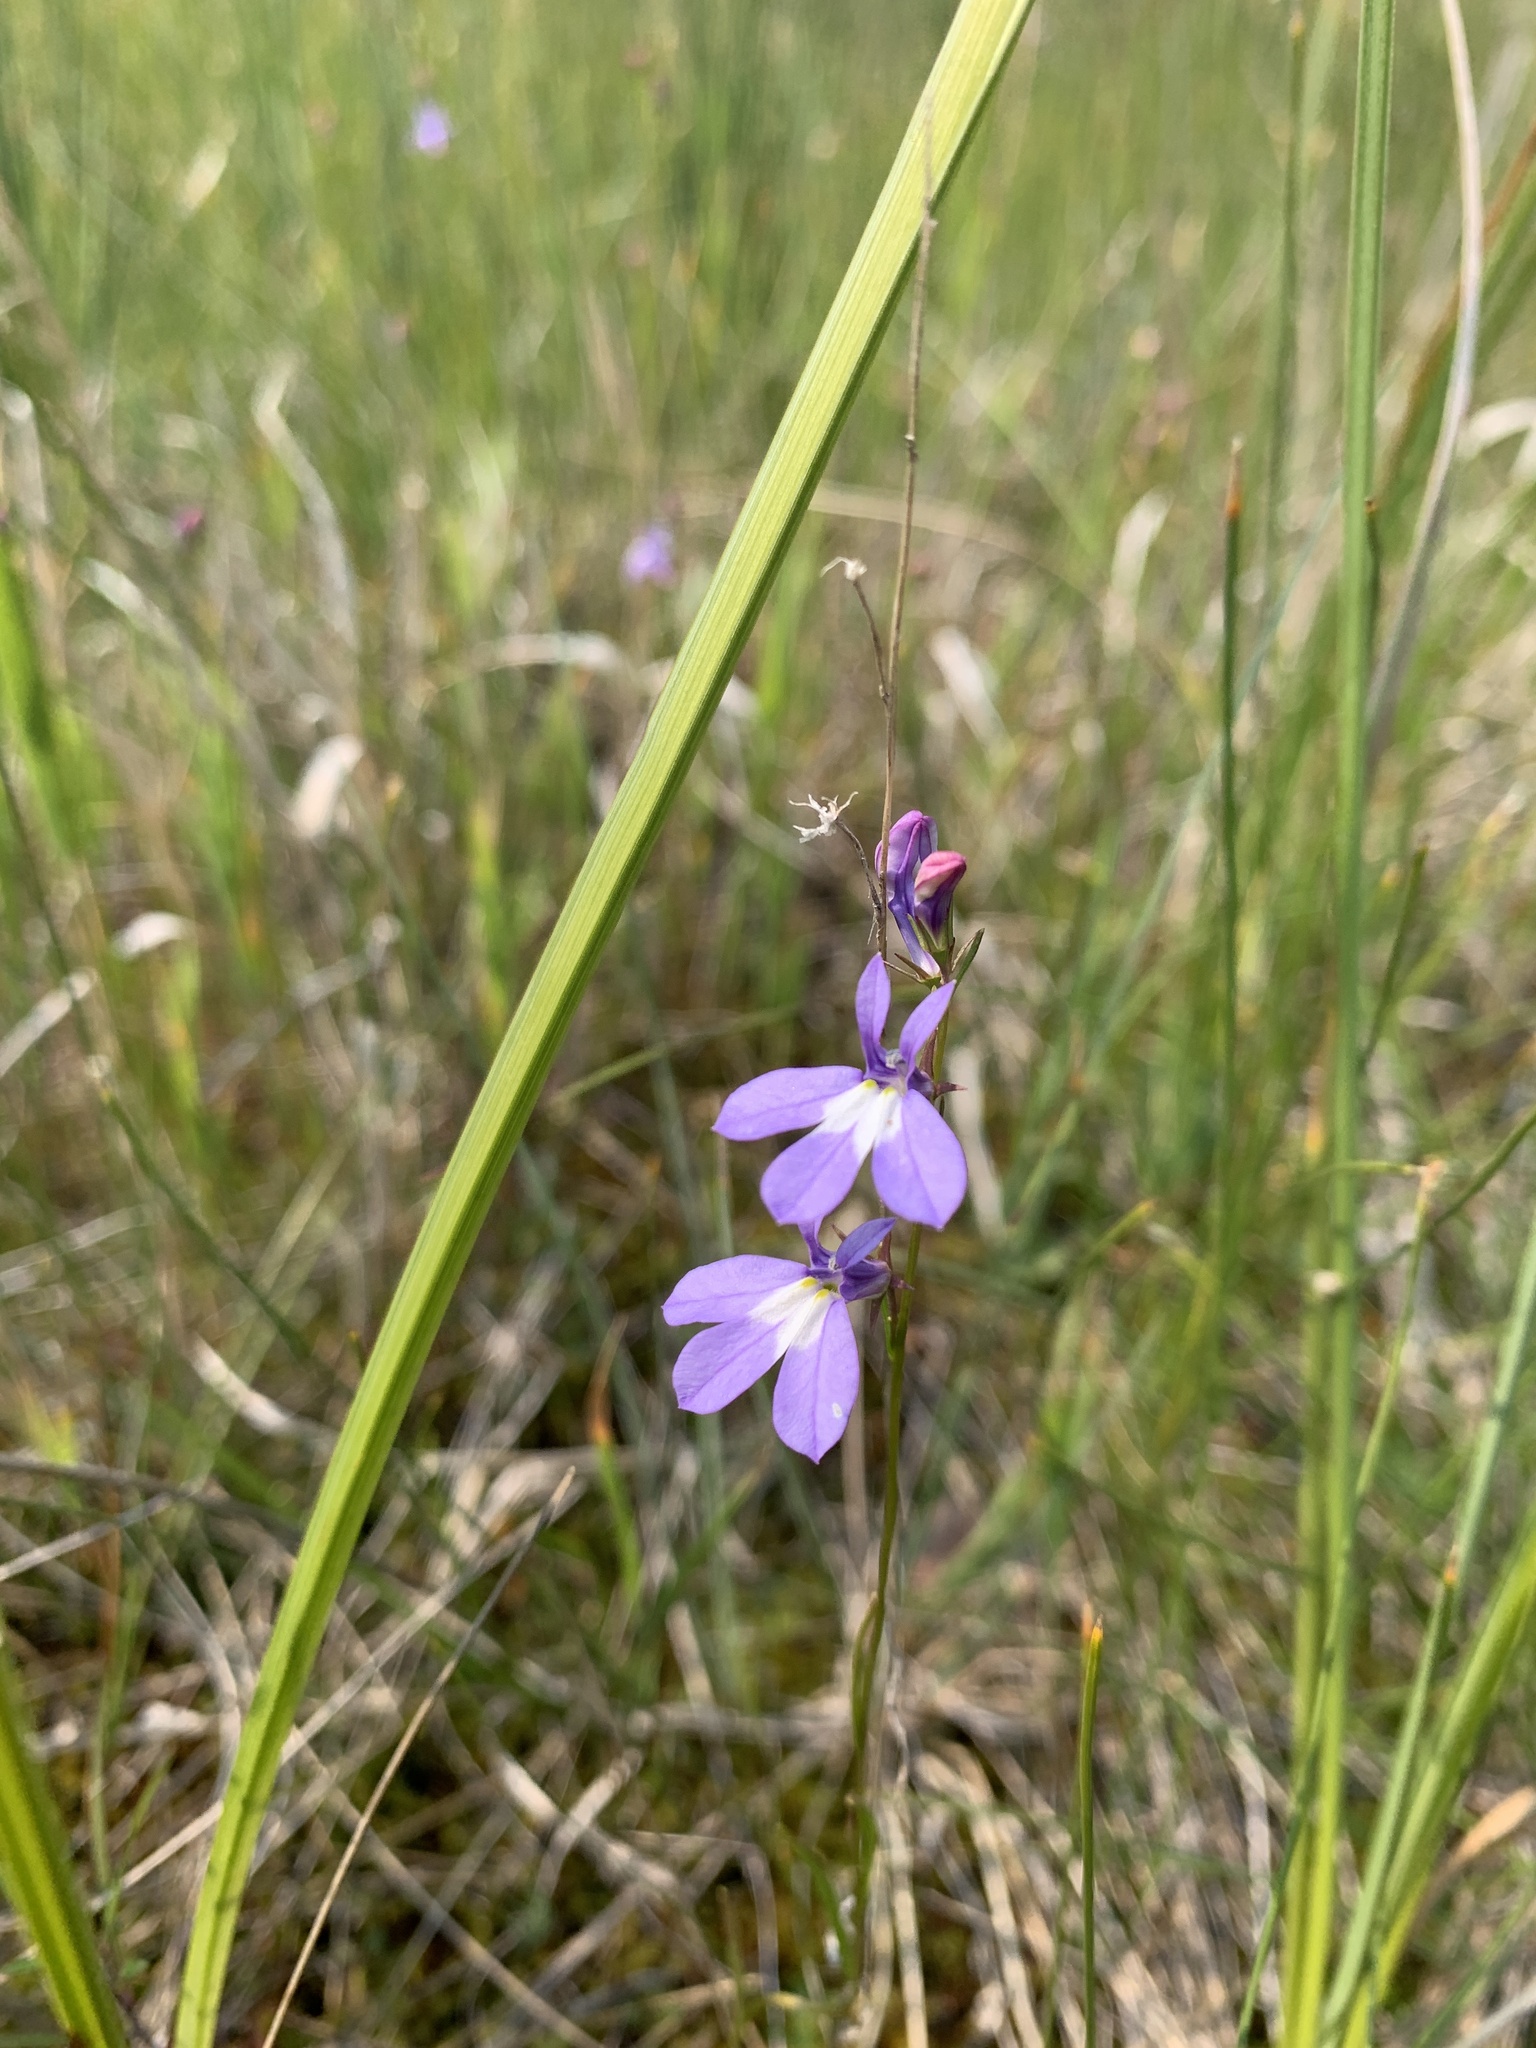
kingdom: Plantae
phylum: Tracheophyta
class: Magnoliopsida
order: Asterales
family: Campanulaceae
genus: Lobelia
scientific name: Lobelia kalmii
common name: Kalm's lobelia
